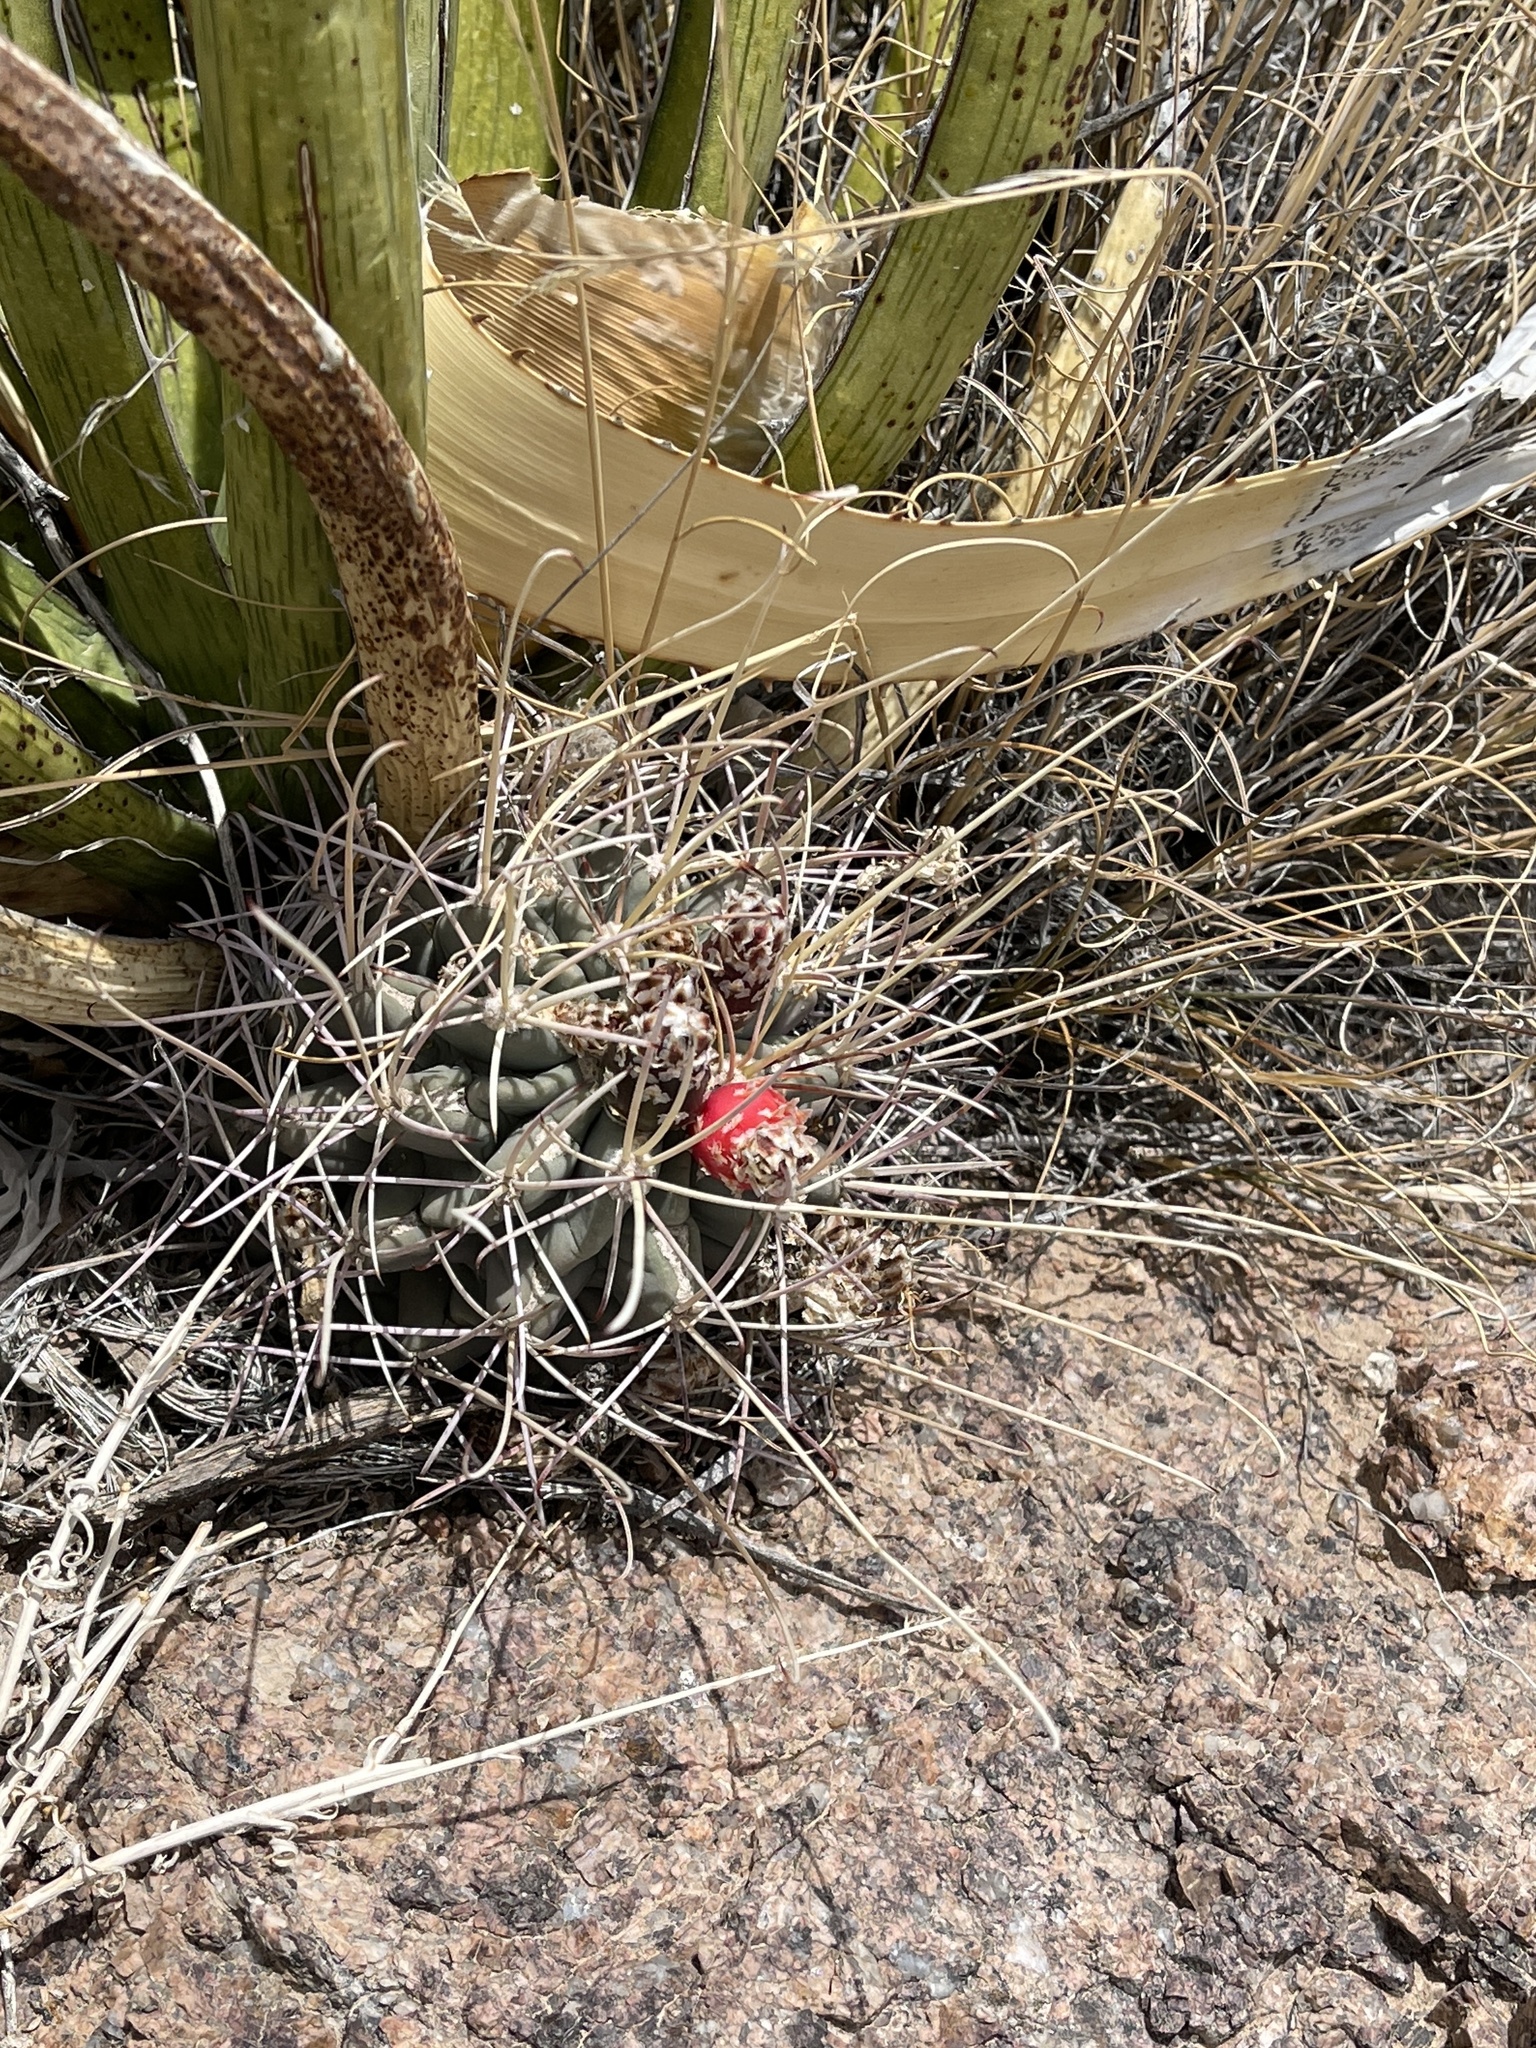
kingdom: Plantae
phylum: Tracheophyta
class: Magnoliopsida
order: Caryophyllales
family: Cactaceae
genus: Ferocactus
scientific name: Ferocactus uncinatus
